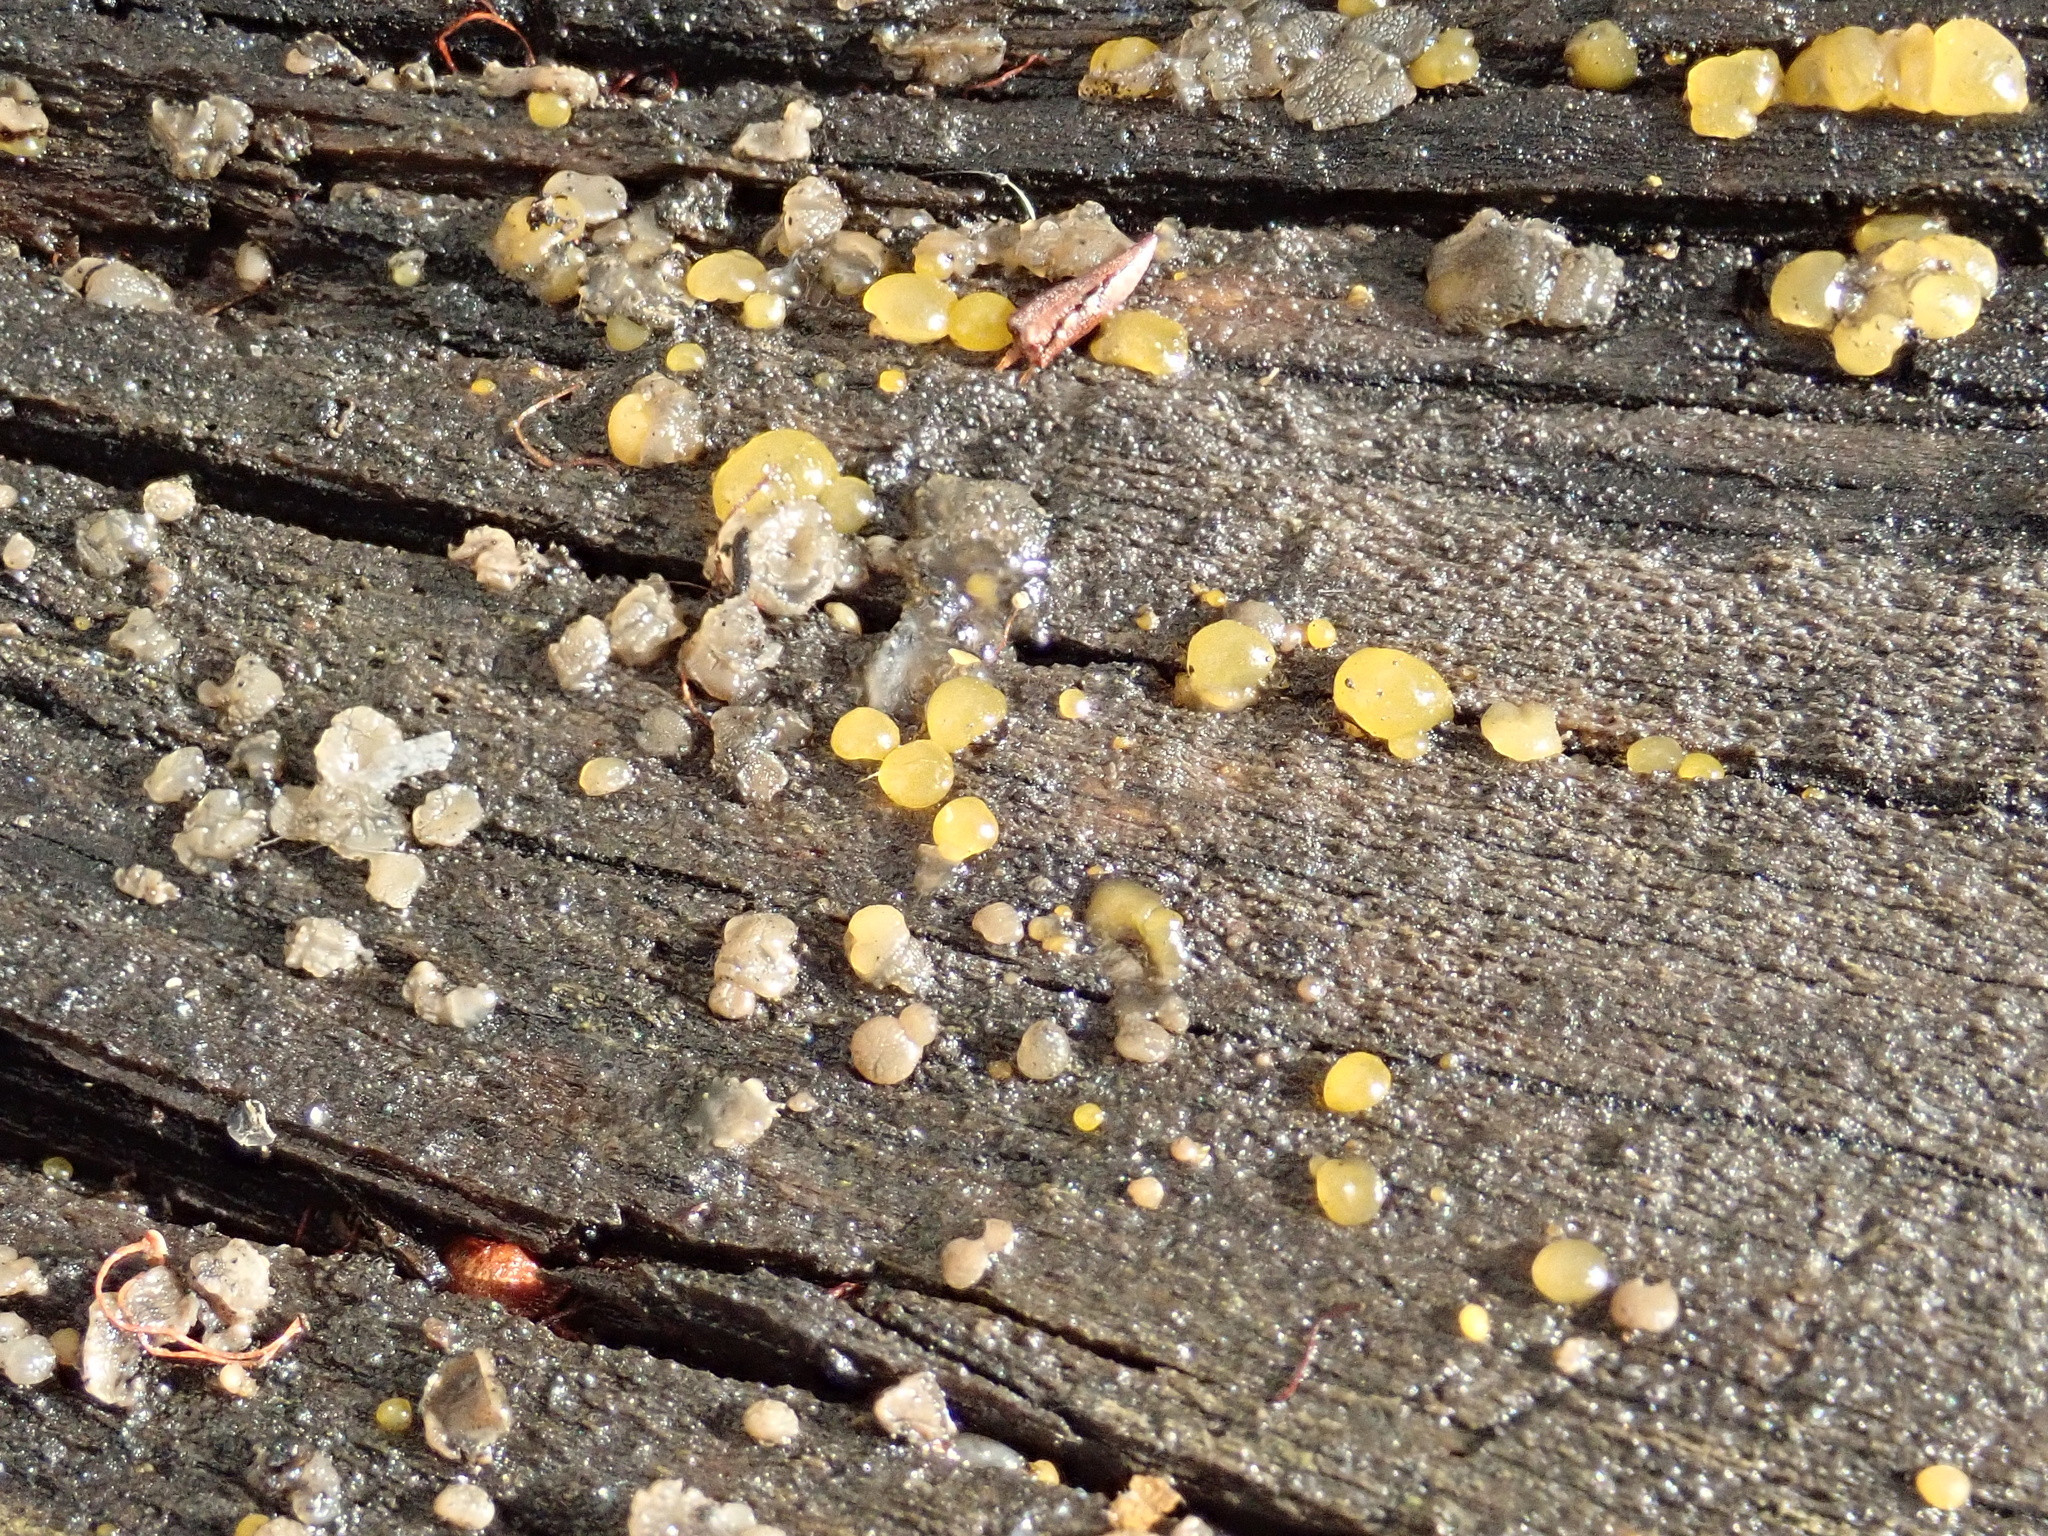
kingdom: Fungi
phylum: Basidiomycota
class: Dacrymycetes
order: Dacrymycetales
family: Dacrymycetaceae
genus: Dacrymyces
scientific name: Dacrymyces stillatus
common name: Common jelly spot
